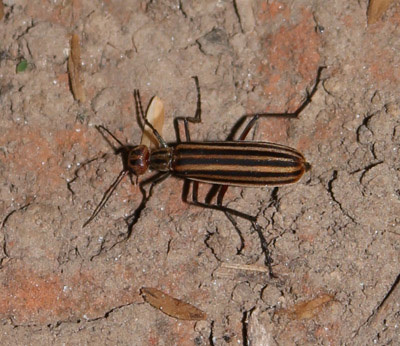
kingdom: Animalia
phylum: Arthropoda
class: Insecta
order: Coleoptera
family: Meloidae
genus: Epicauta
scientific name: Epicauta vittata
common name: Old-fashioned potato beetle
